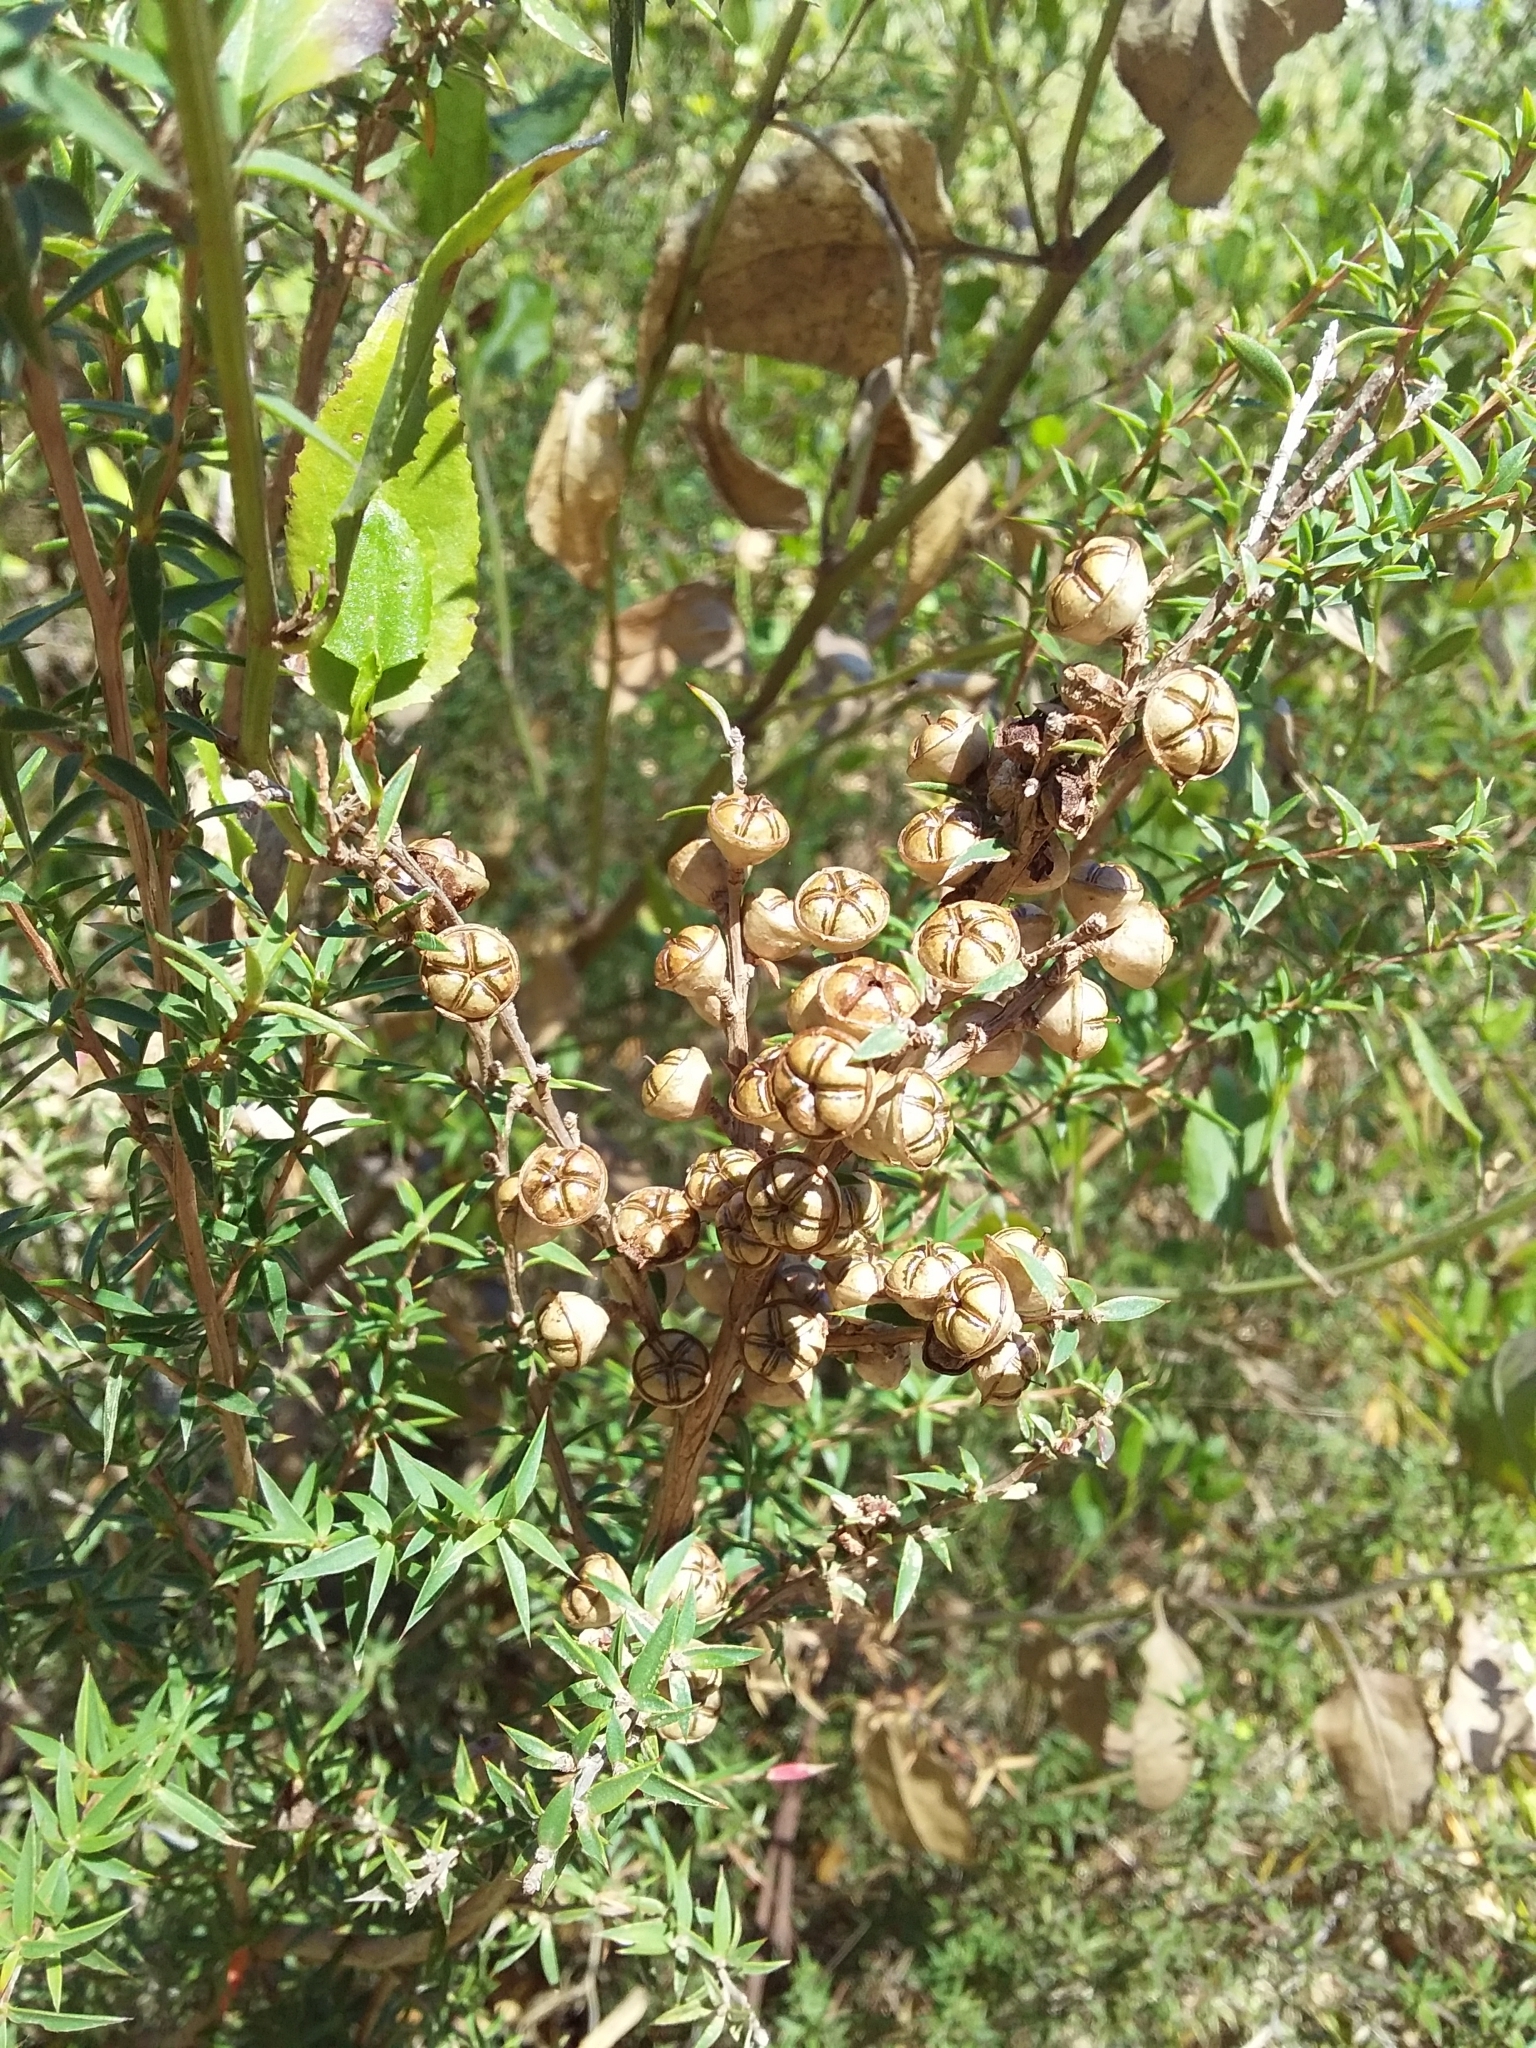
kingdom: Plantae
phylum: Tracheophyta
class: Magnoliopsida
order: Myrtales
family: Myrtaceae
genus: Leptospermum
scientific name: Leptospermum continentale
